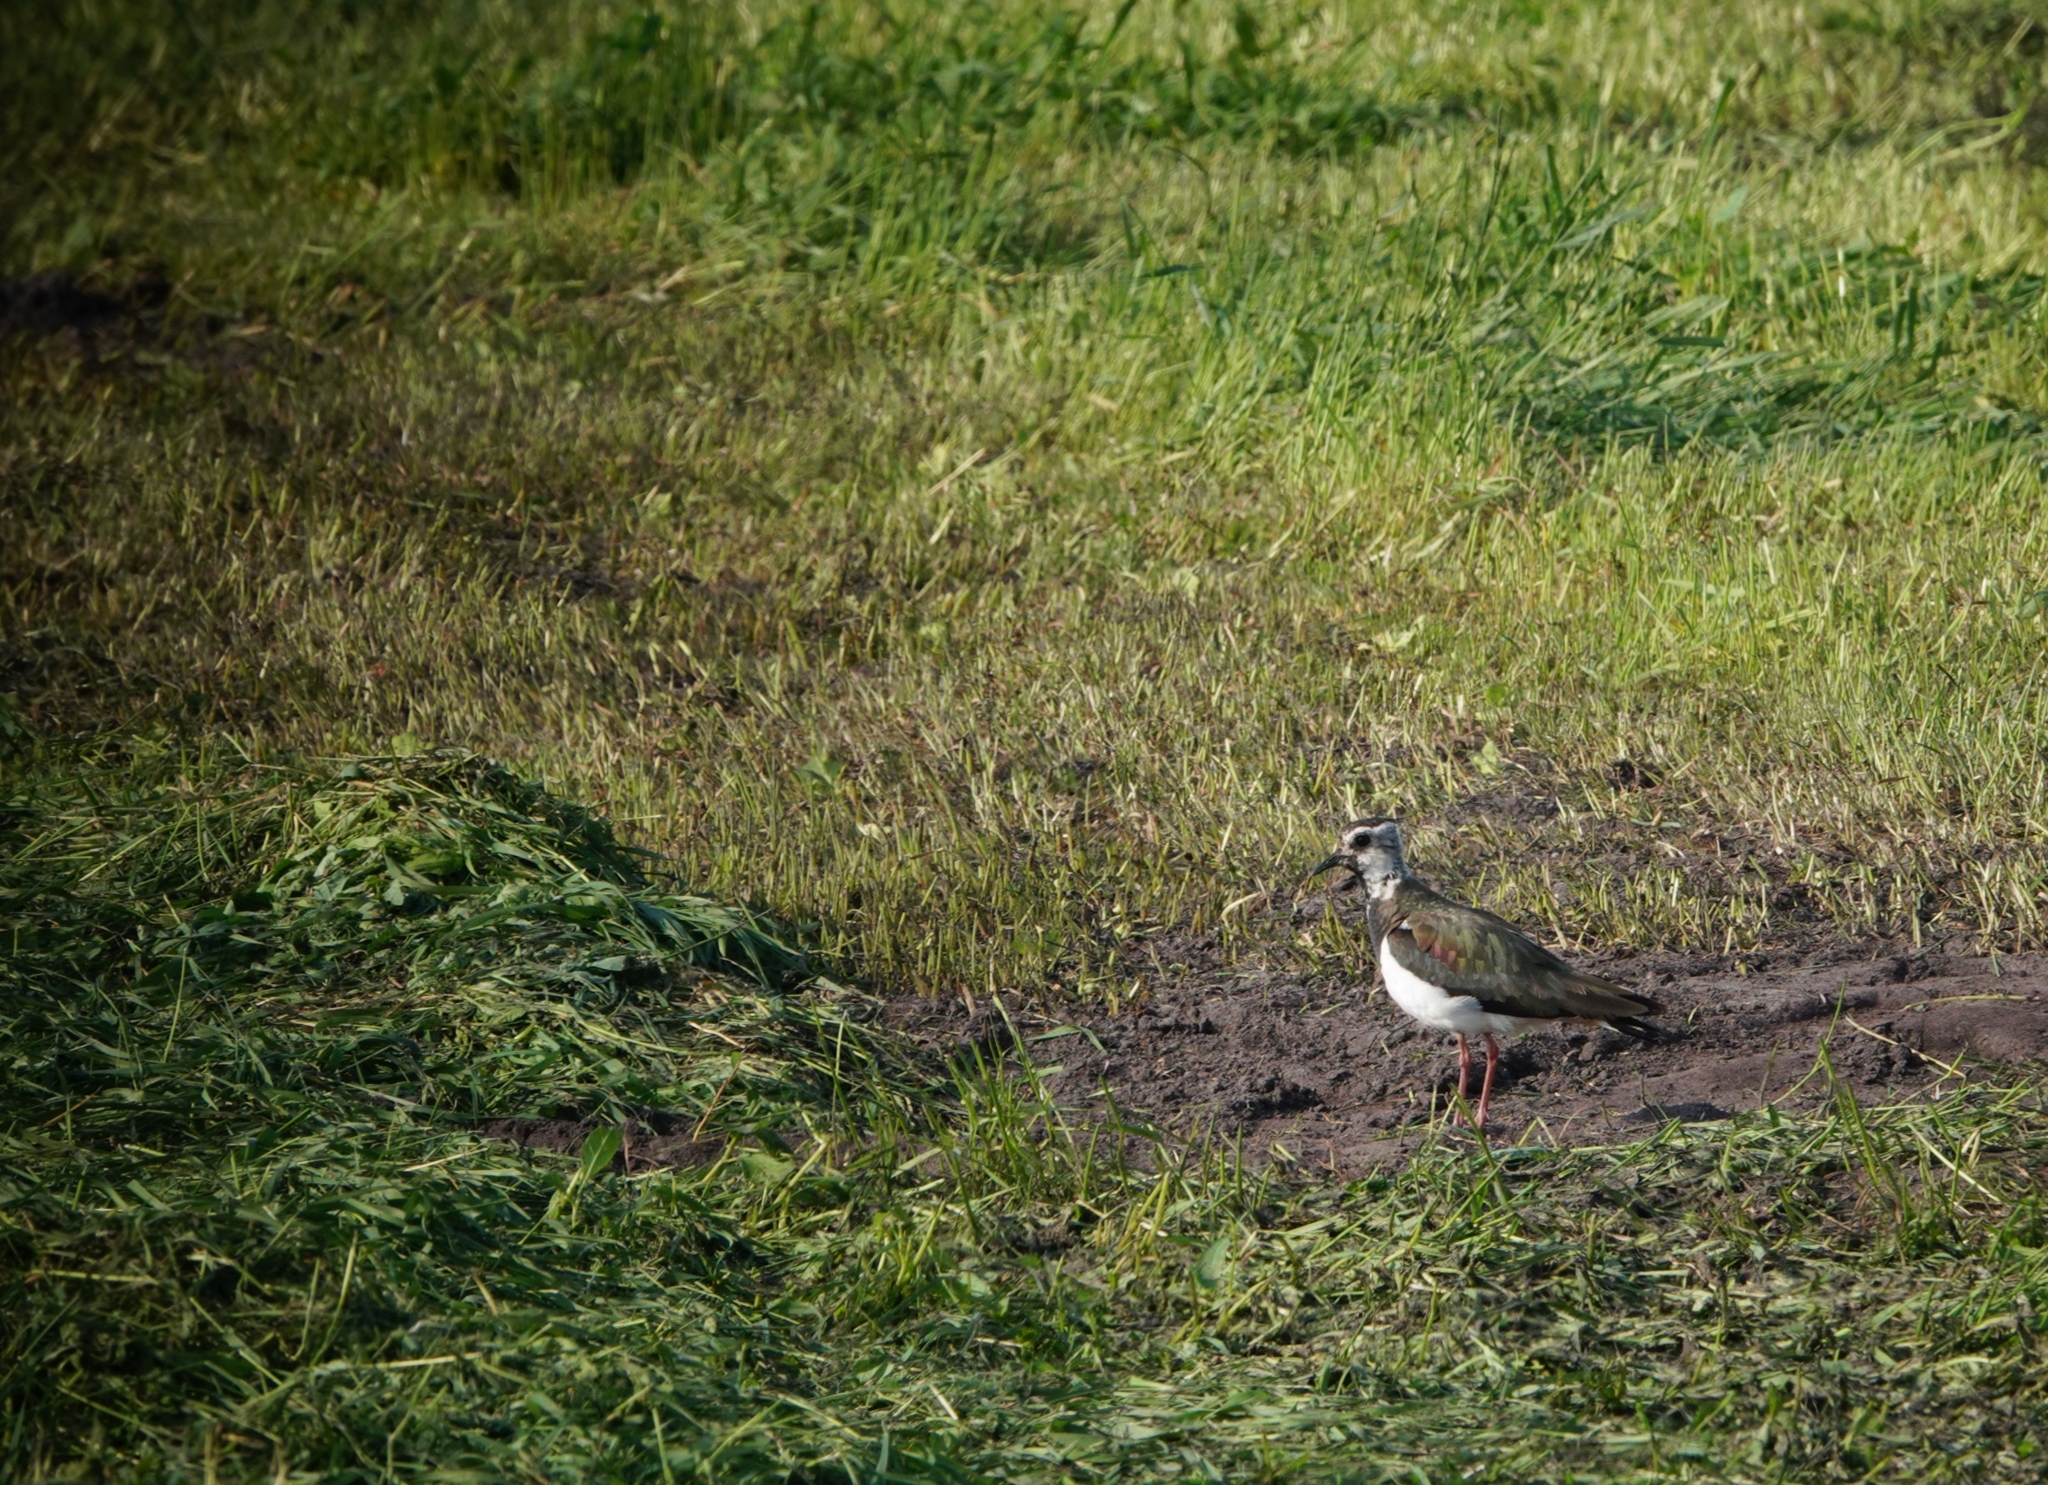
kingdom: Animalia
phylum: Chordata
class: Aves
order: Charadriiformes
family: Charadriidae
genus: Vanellus
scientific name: Vanellus vanellus
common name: Northern lapwing
